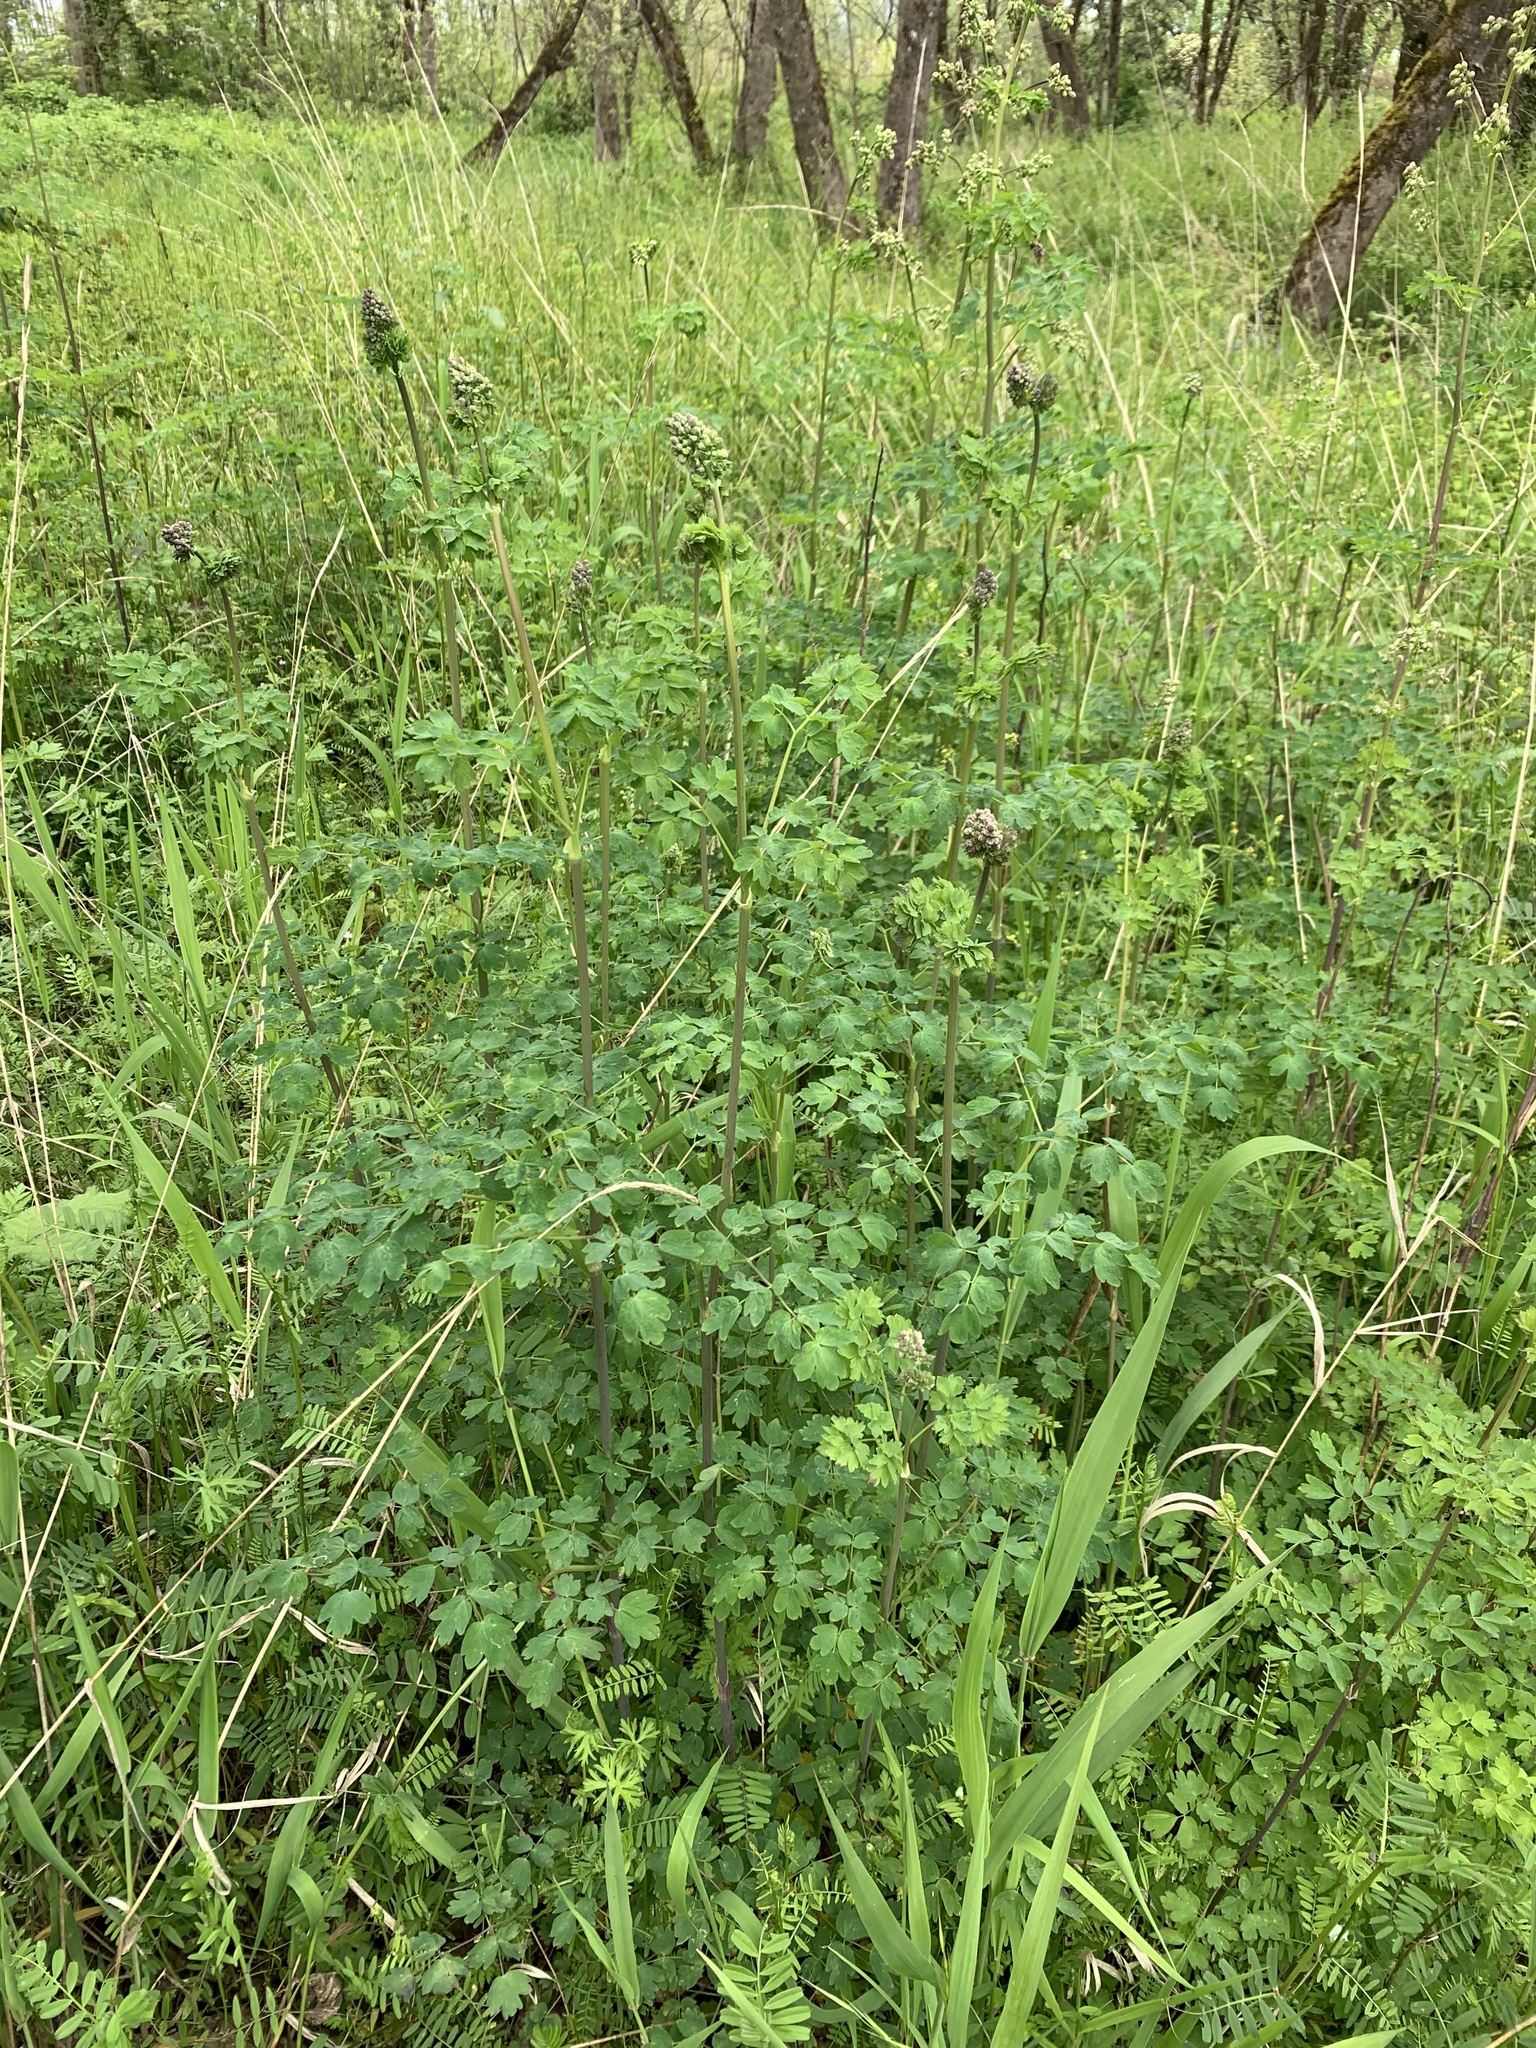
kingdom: Plantae
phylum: Tracheophyta
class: Magnoliopsida
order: Ranunculales
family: Ranunculaceae
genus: Thalictrum
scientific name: Thalictrum fendleri
